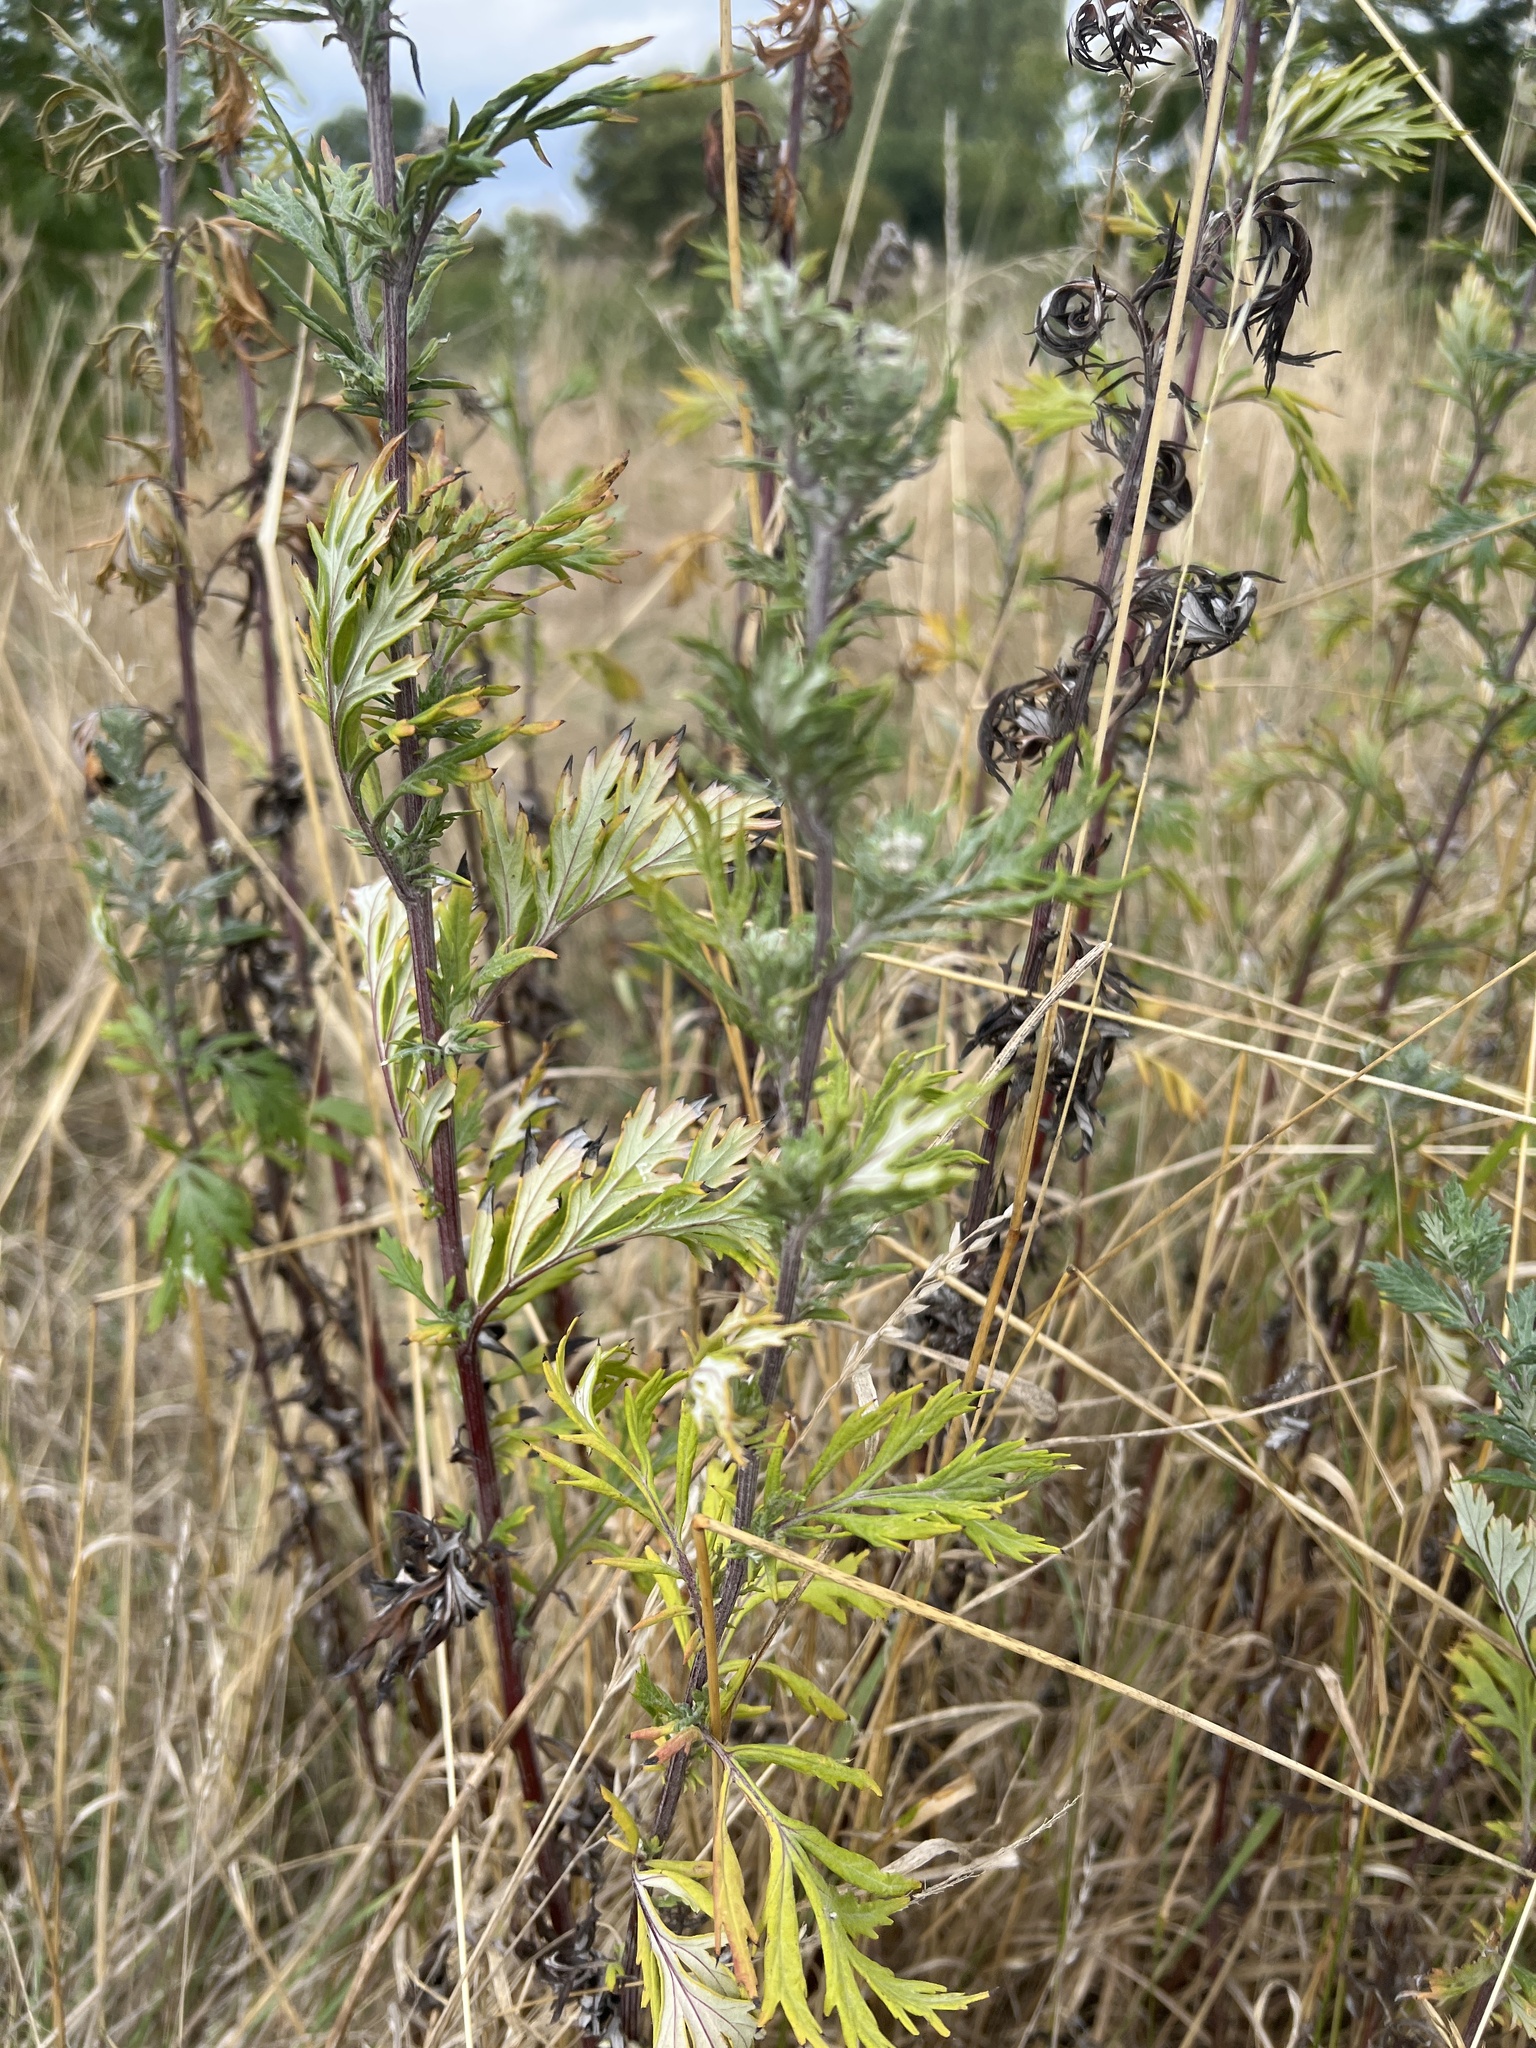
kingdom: Plantae
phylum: Tracheophyta
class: Magnoliopsida
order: Asterales
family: Asteraceae
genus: Artemisia
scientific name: Artemisia vulgaris
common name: Mugwort
